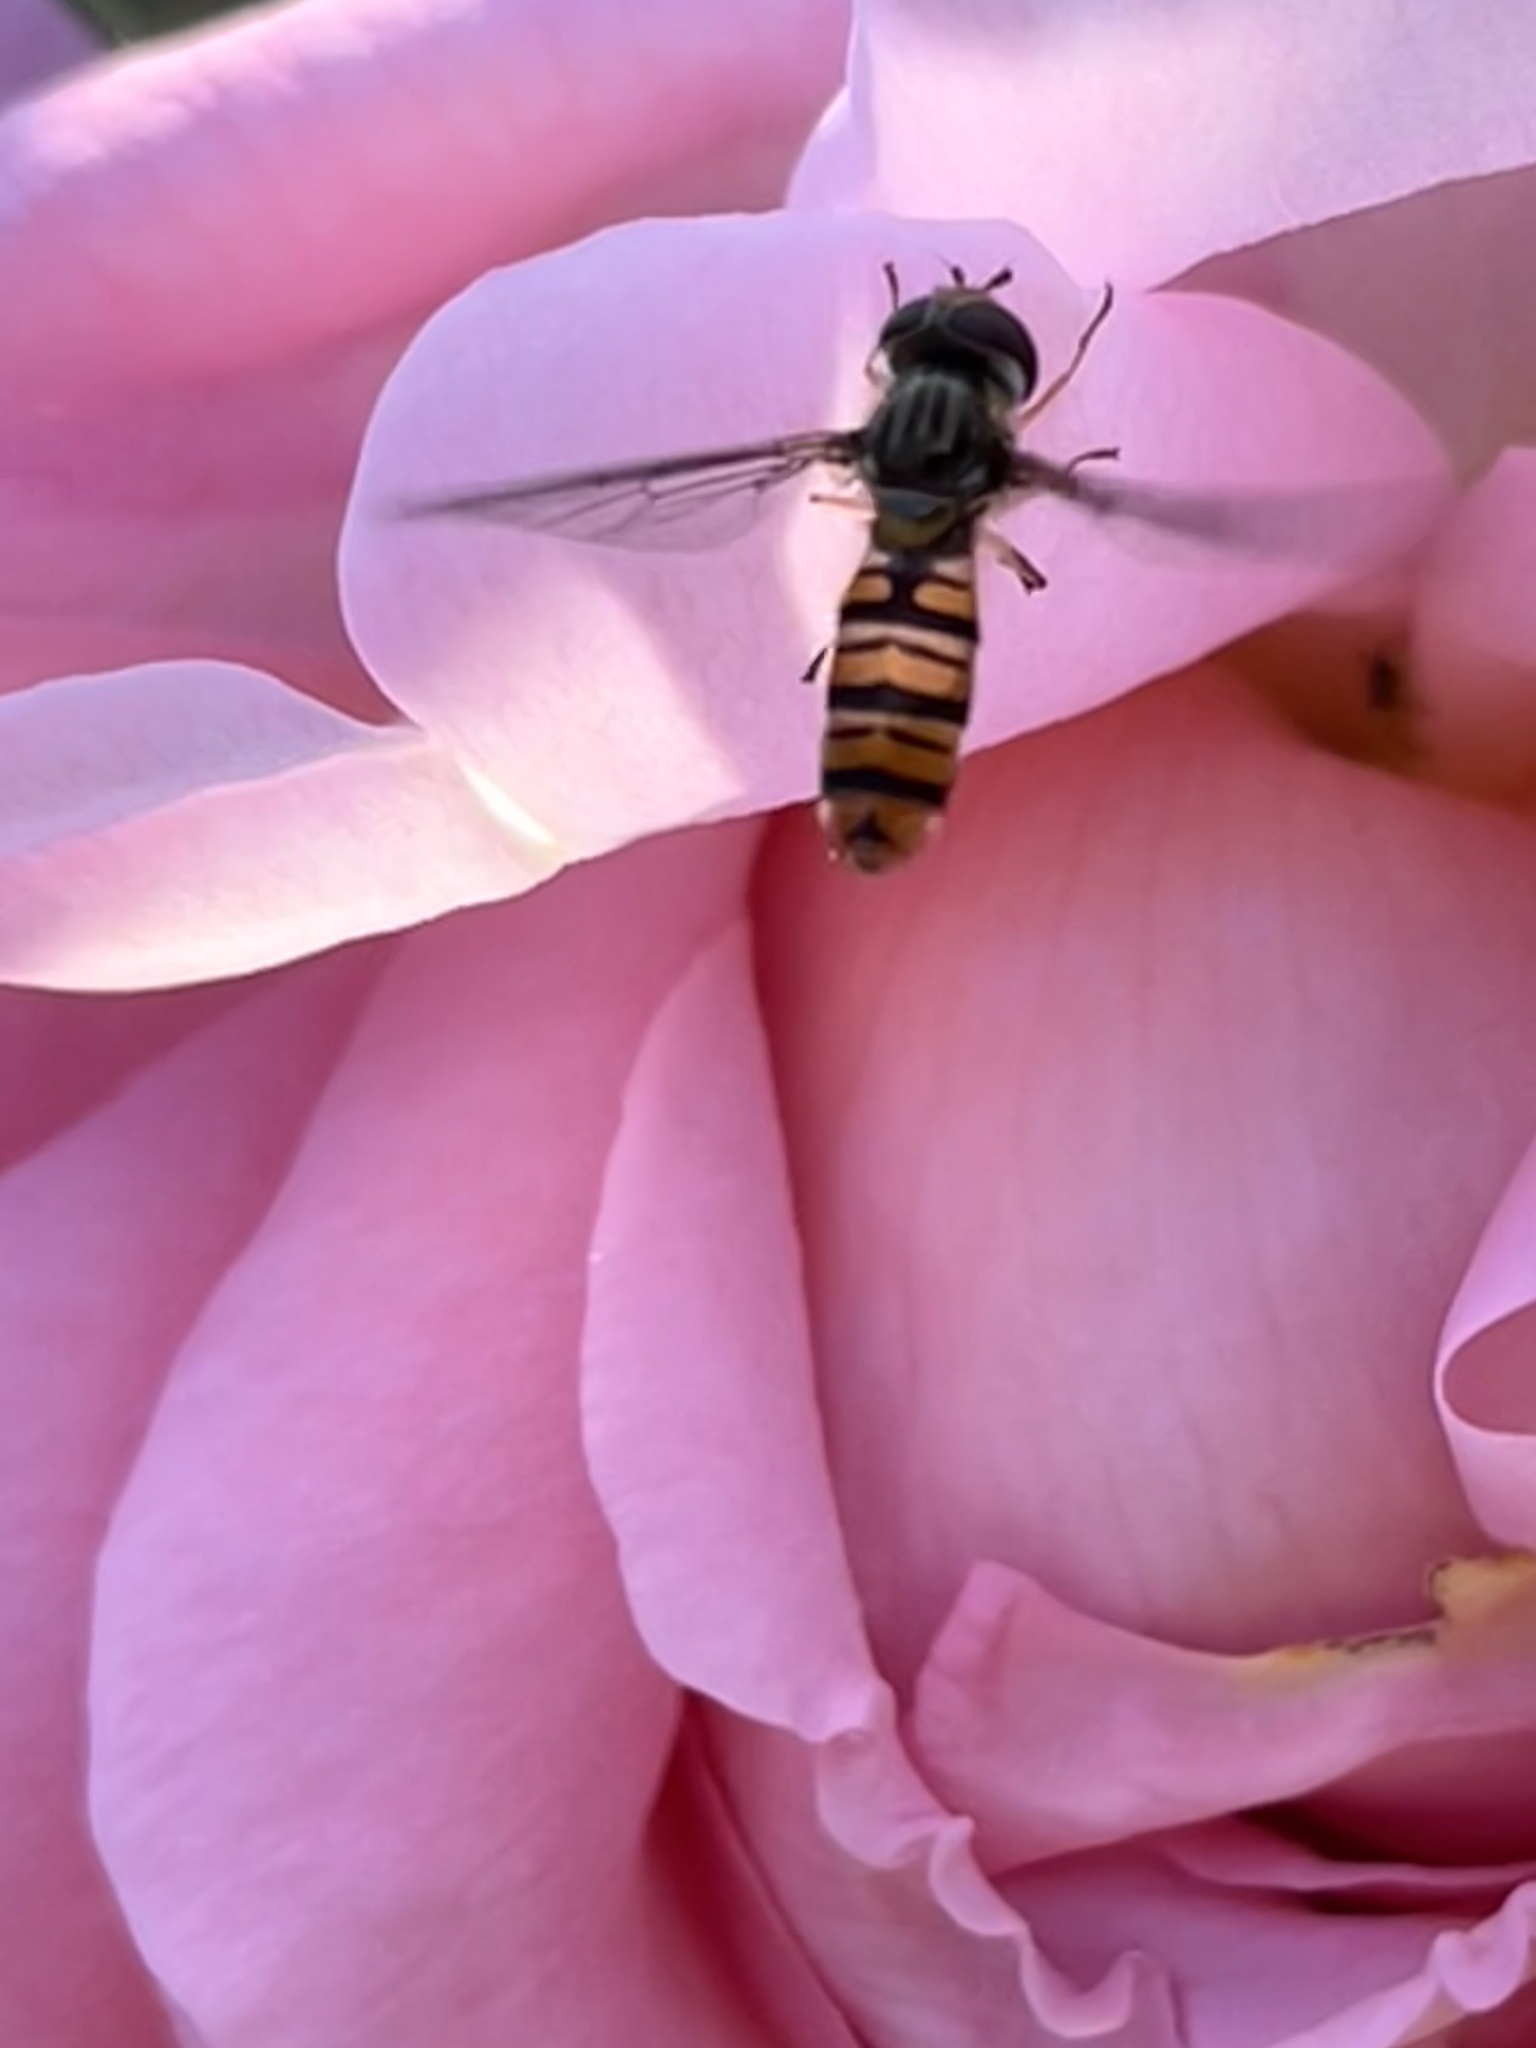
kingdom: Animalia
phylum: Arthropoda
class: Insecta
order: Diptera
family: Syrphidae
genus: Episyrphus
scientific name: Episyrphus balteatus
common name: Marmalade hoverfly
